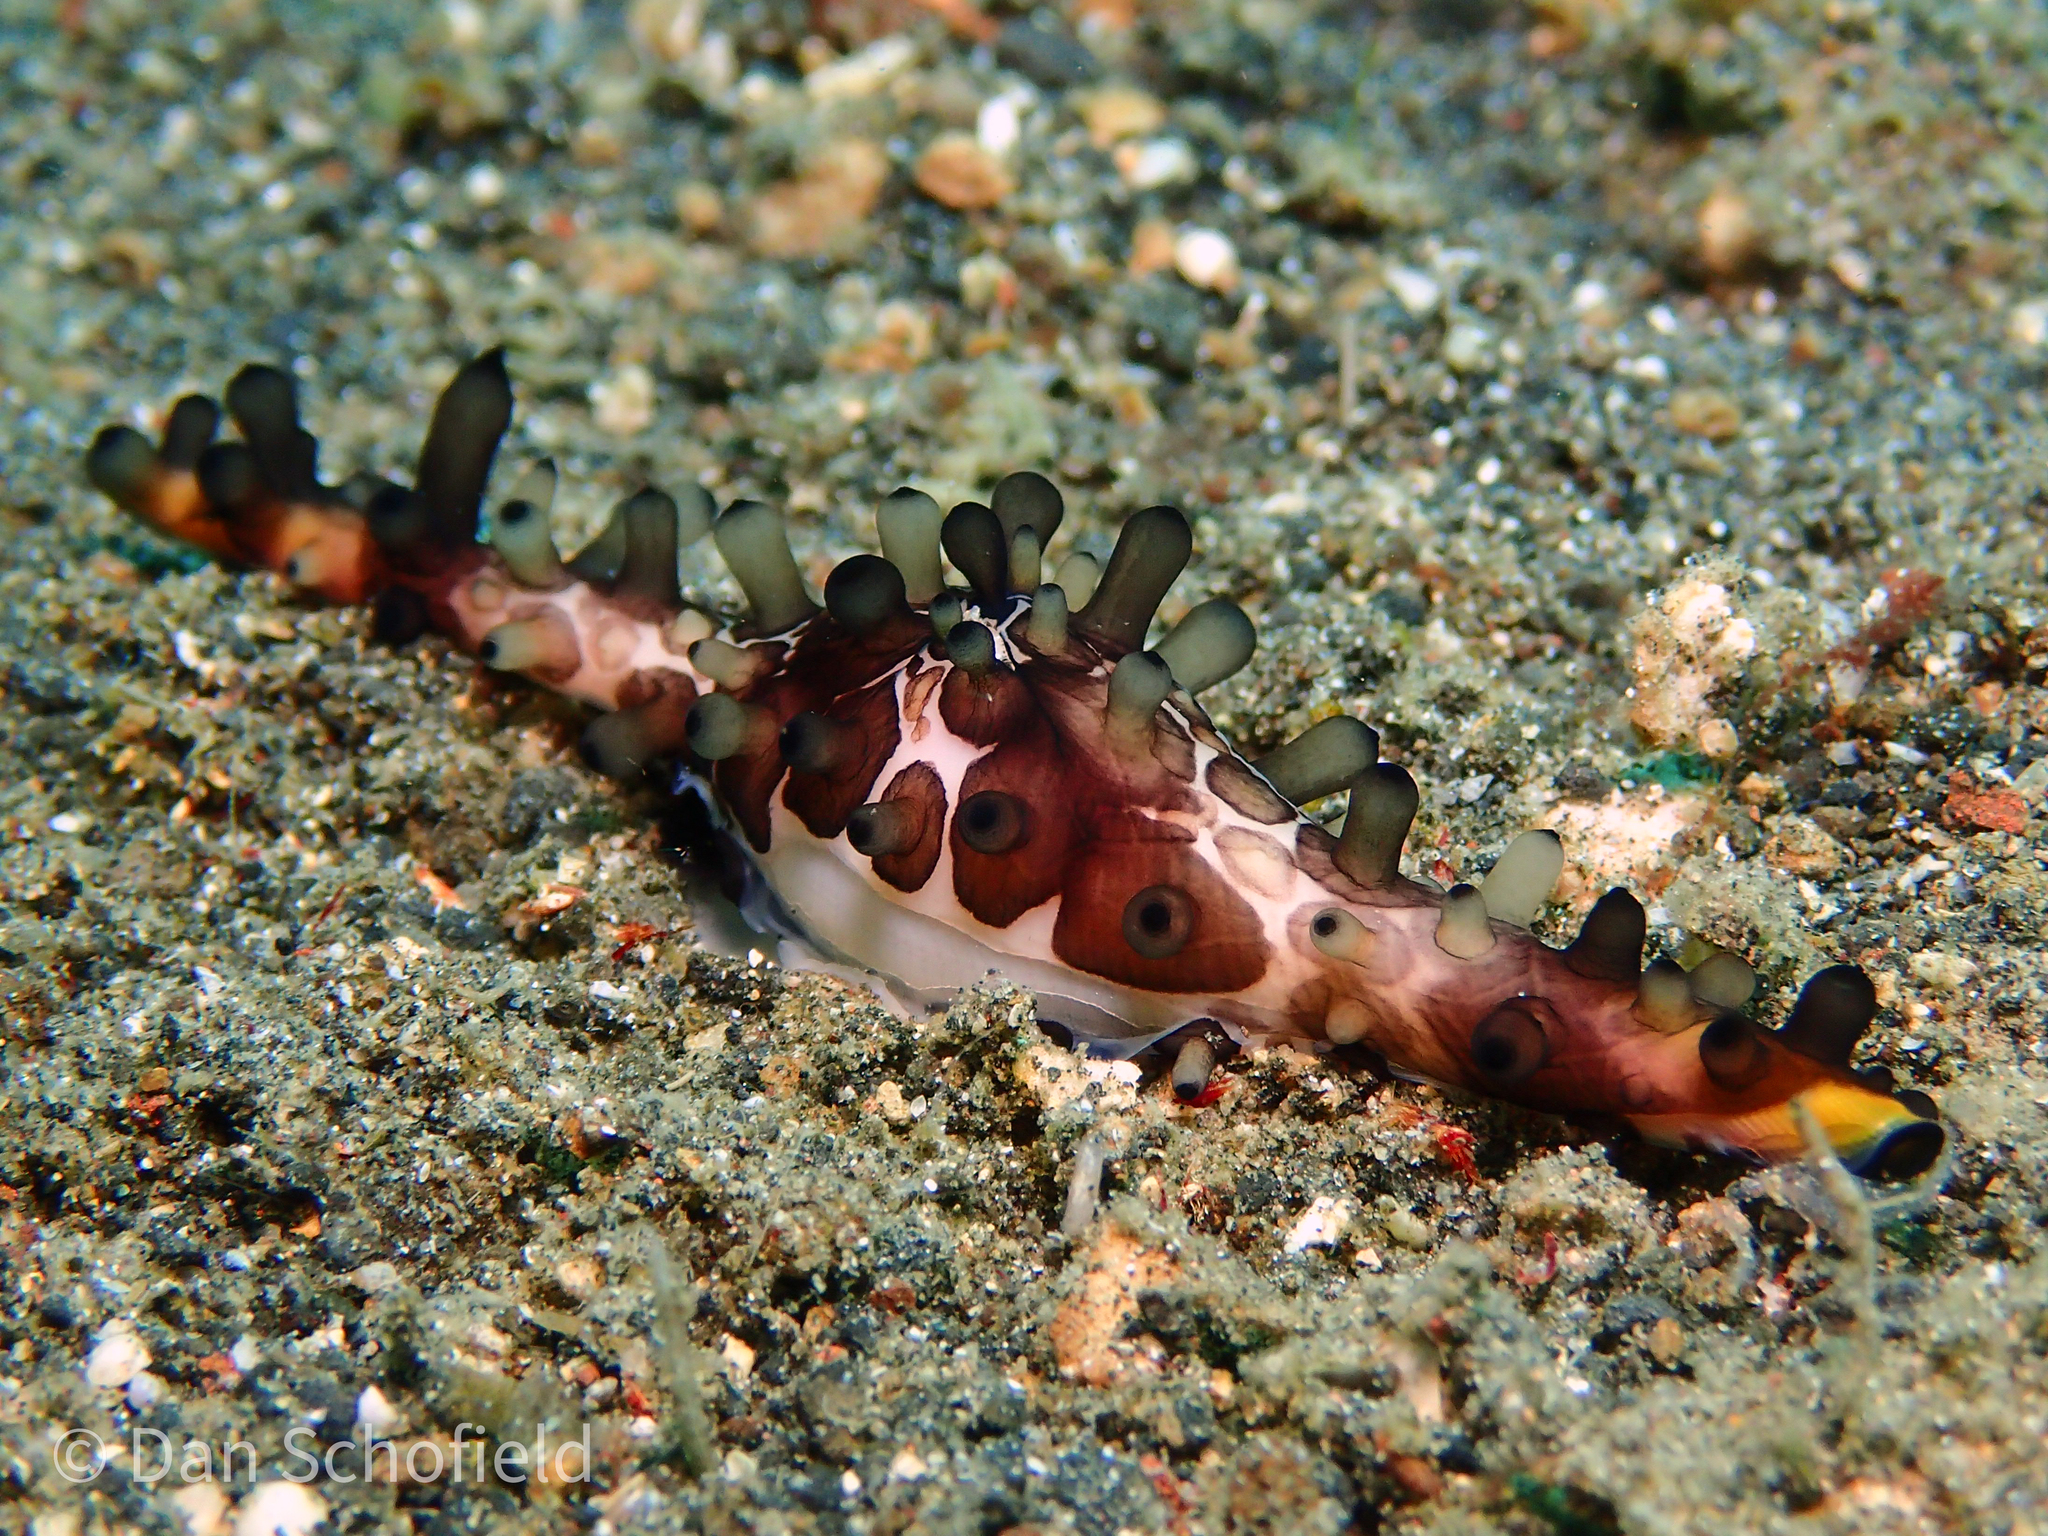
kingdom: Animalia
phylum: Mollusca
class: Gastropoda
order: Littorinimorpha
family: Ovulidae
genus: Volva
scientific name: Volva volva
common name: Egg spindle
